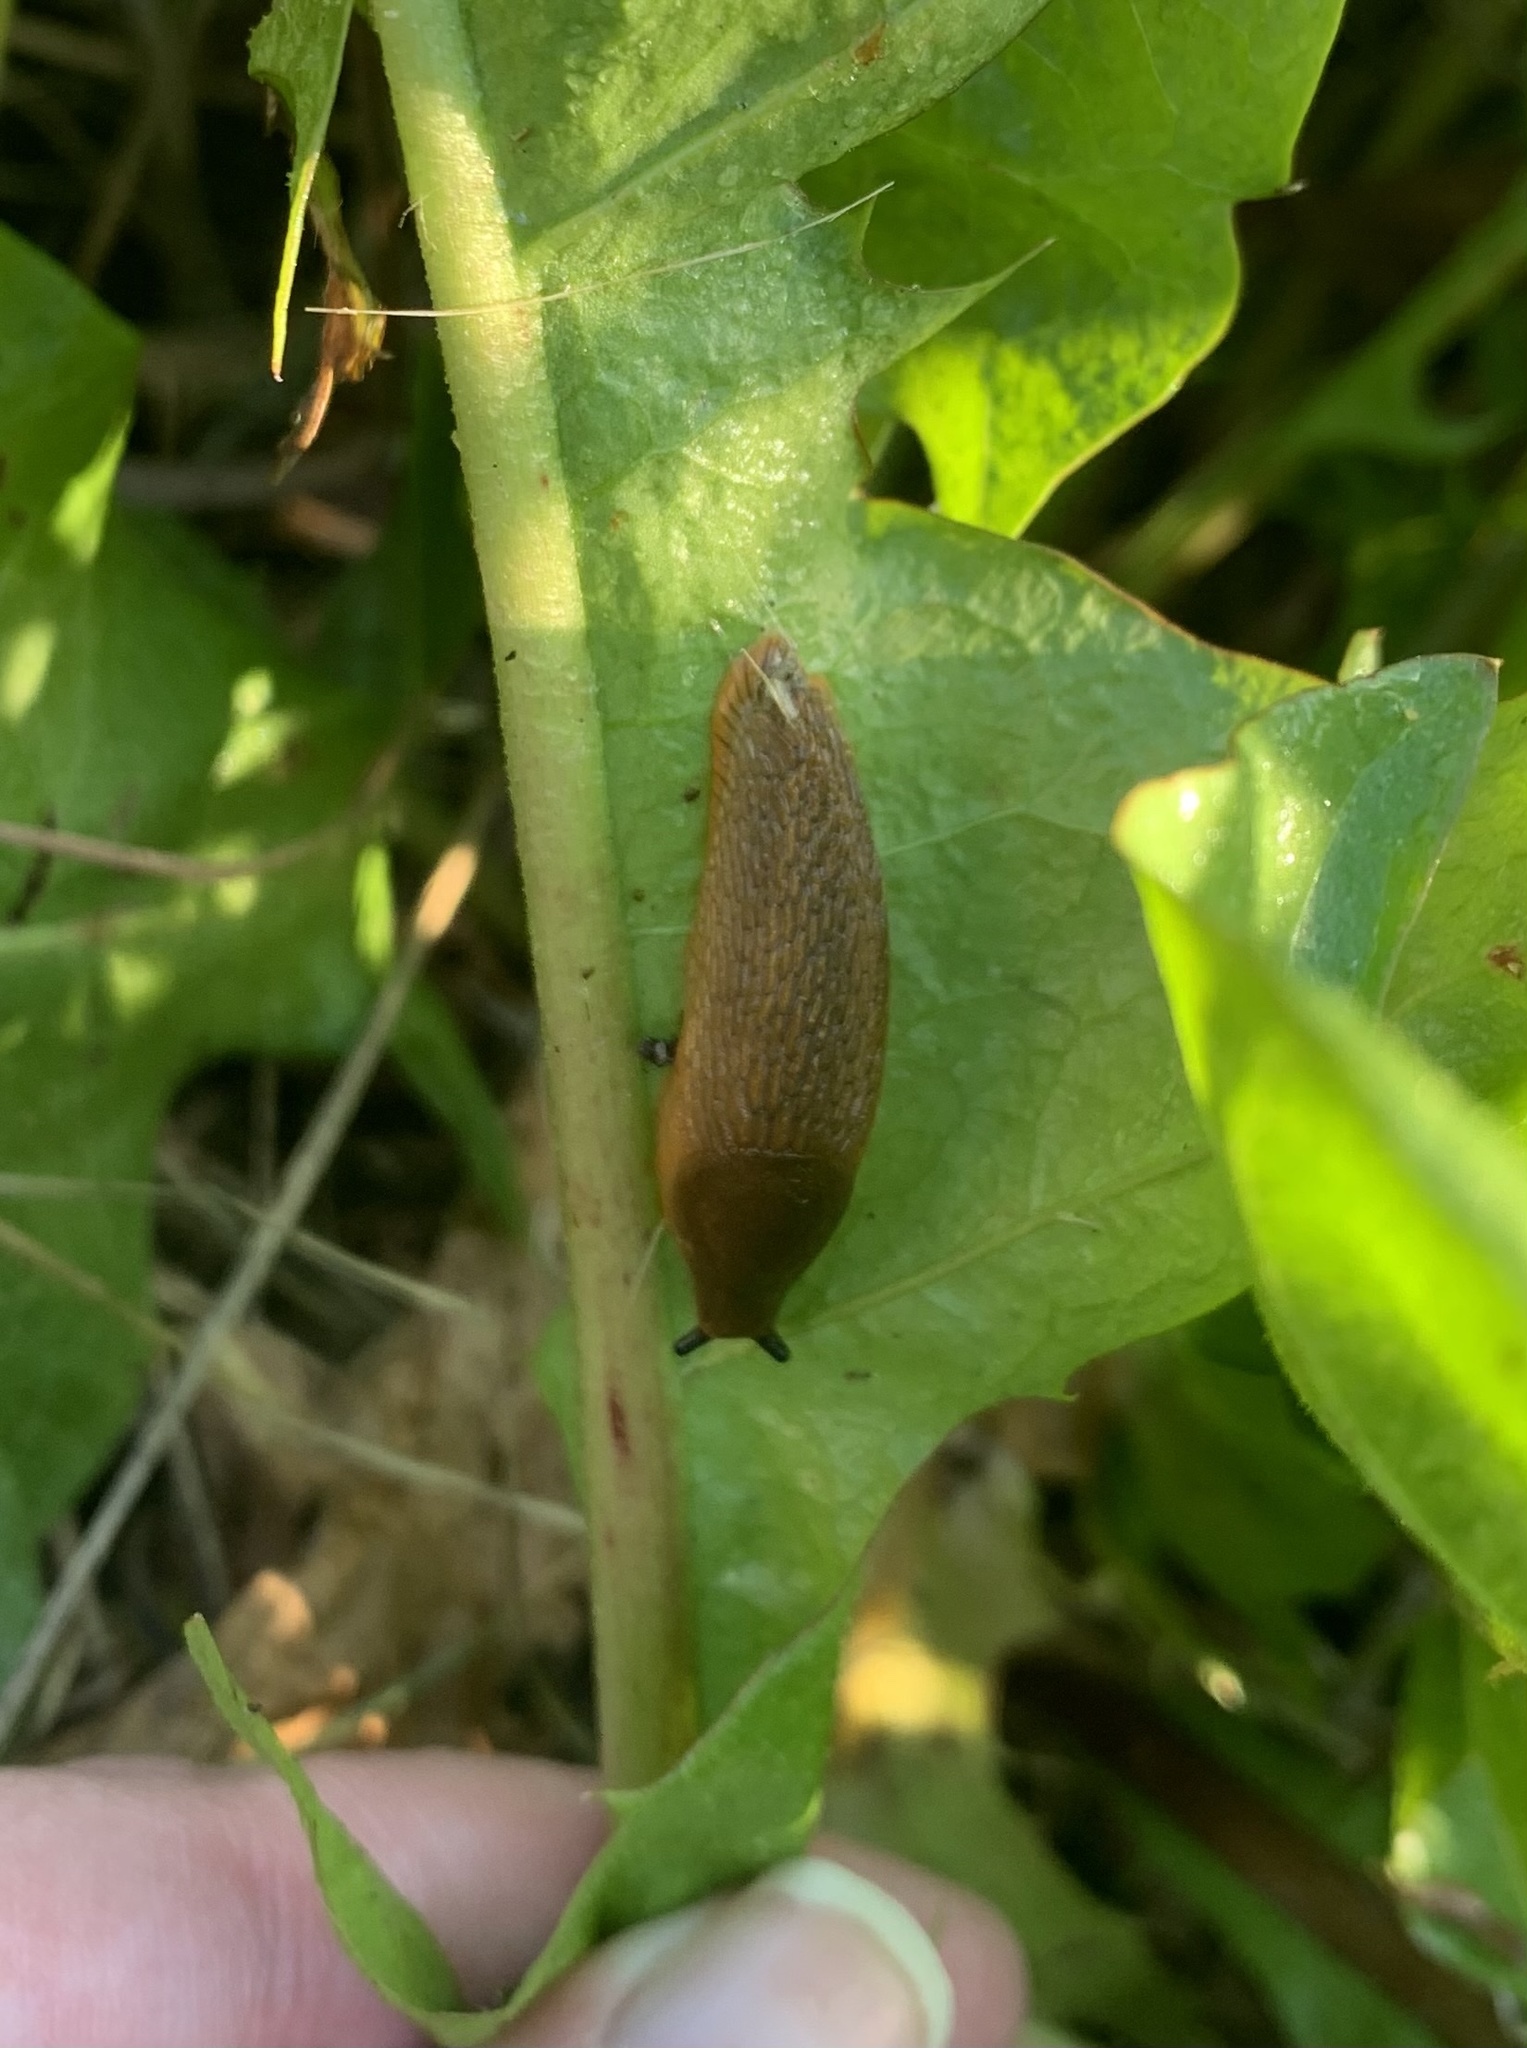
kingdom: Animalia
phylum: Mollusca
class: Gastropoda
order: Stylommatophora
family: Arionidae
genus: Arion
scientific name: Arion
